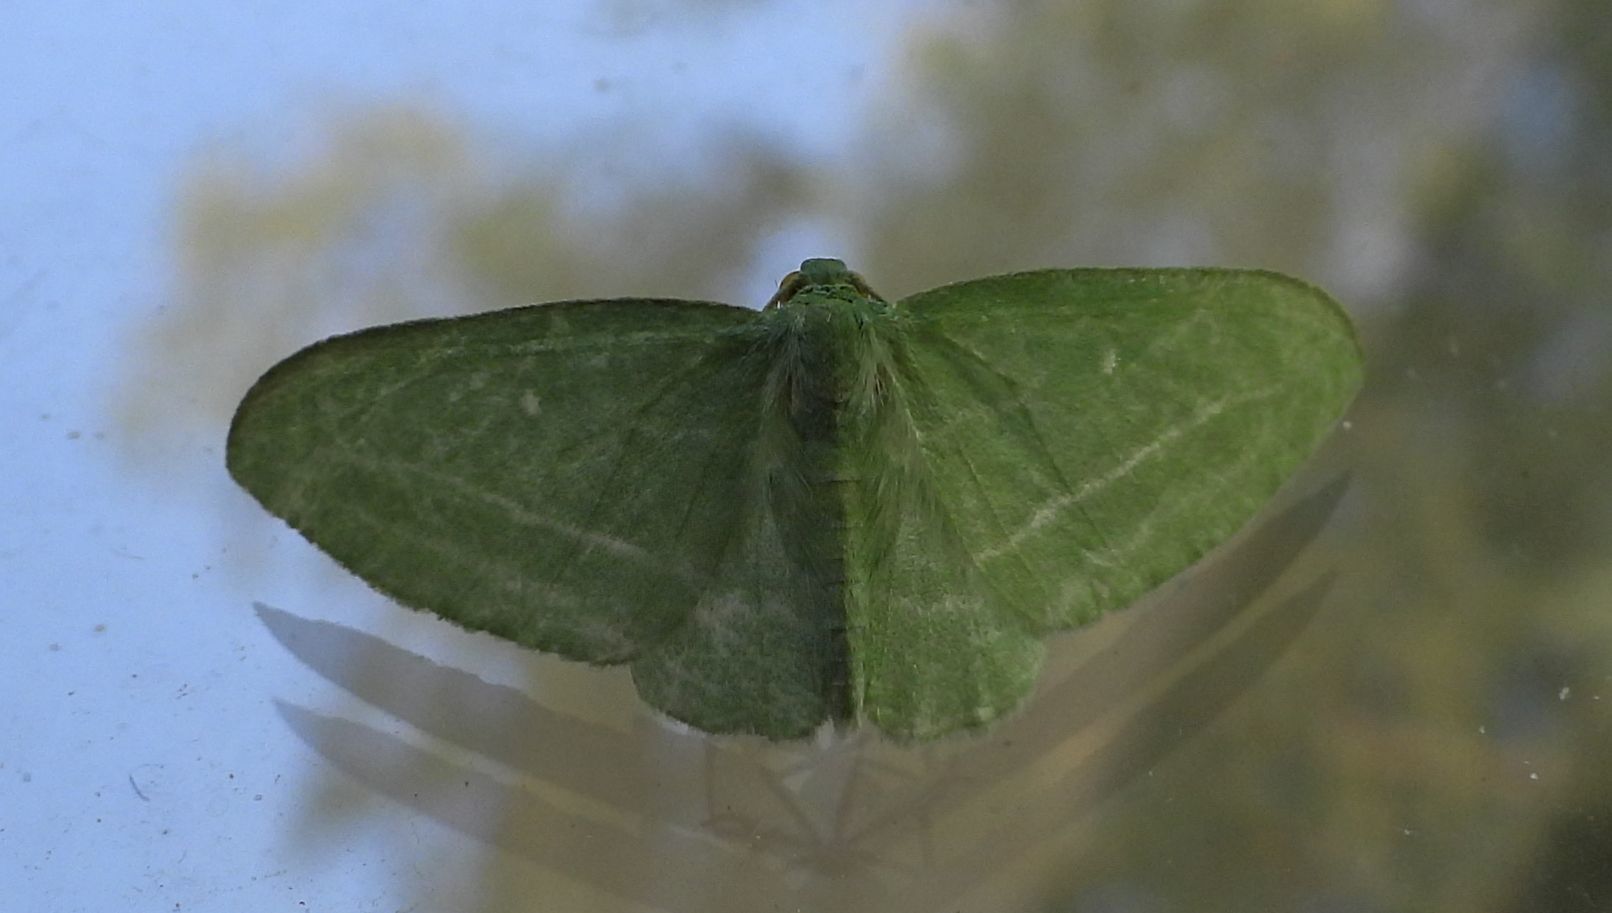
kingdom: Animalia
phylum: Arthropoda
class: Insecta
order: Lepidoptera
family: Geometridae
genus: Dyspteris
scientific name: Dyspteris abortivaria
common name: Bad-wing
